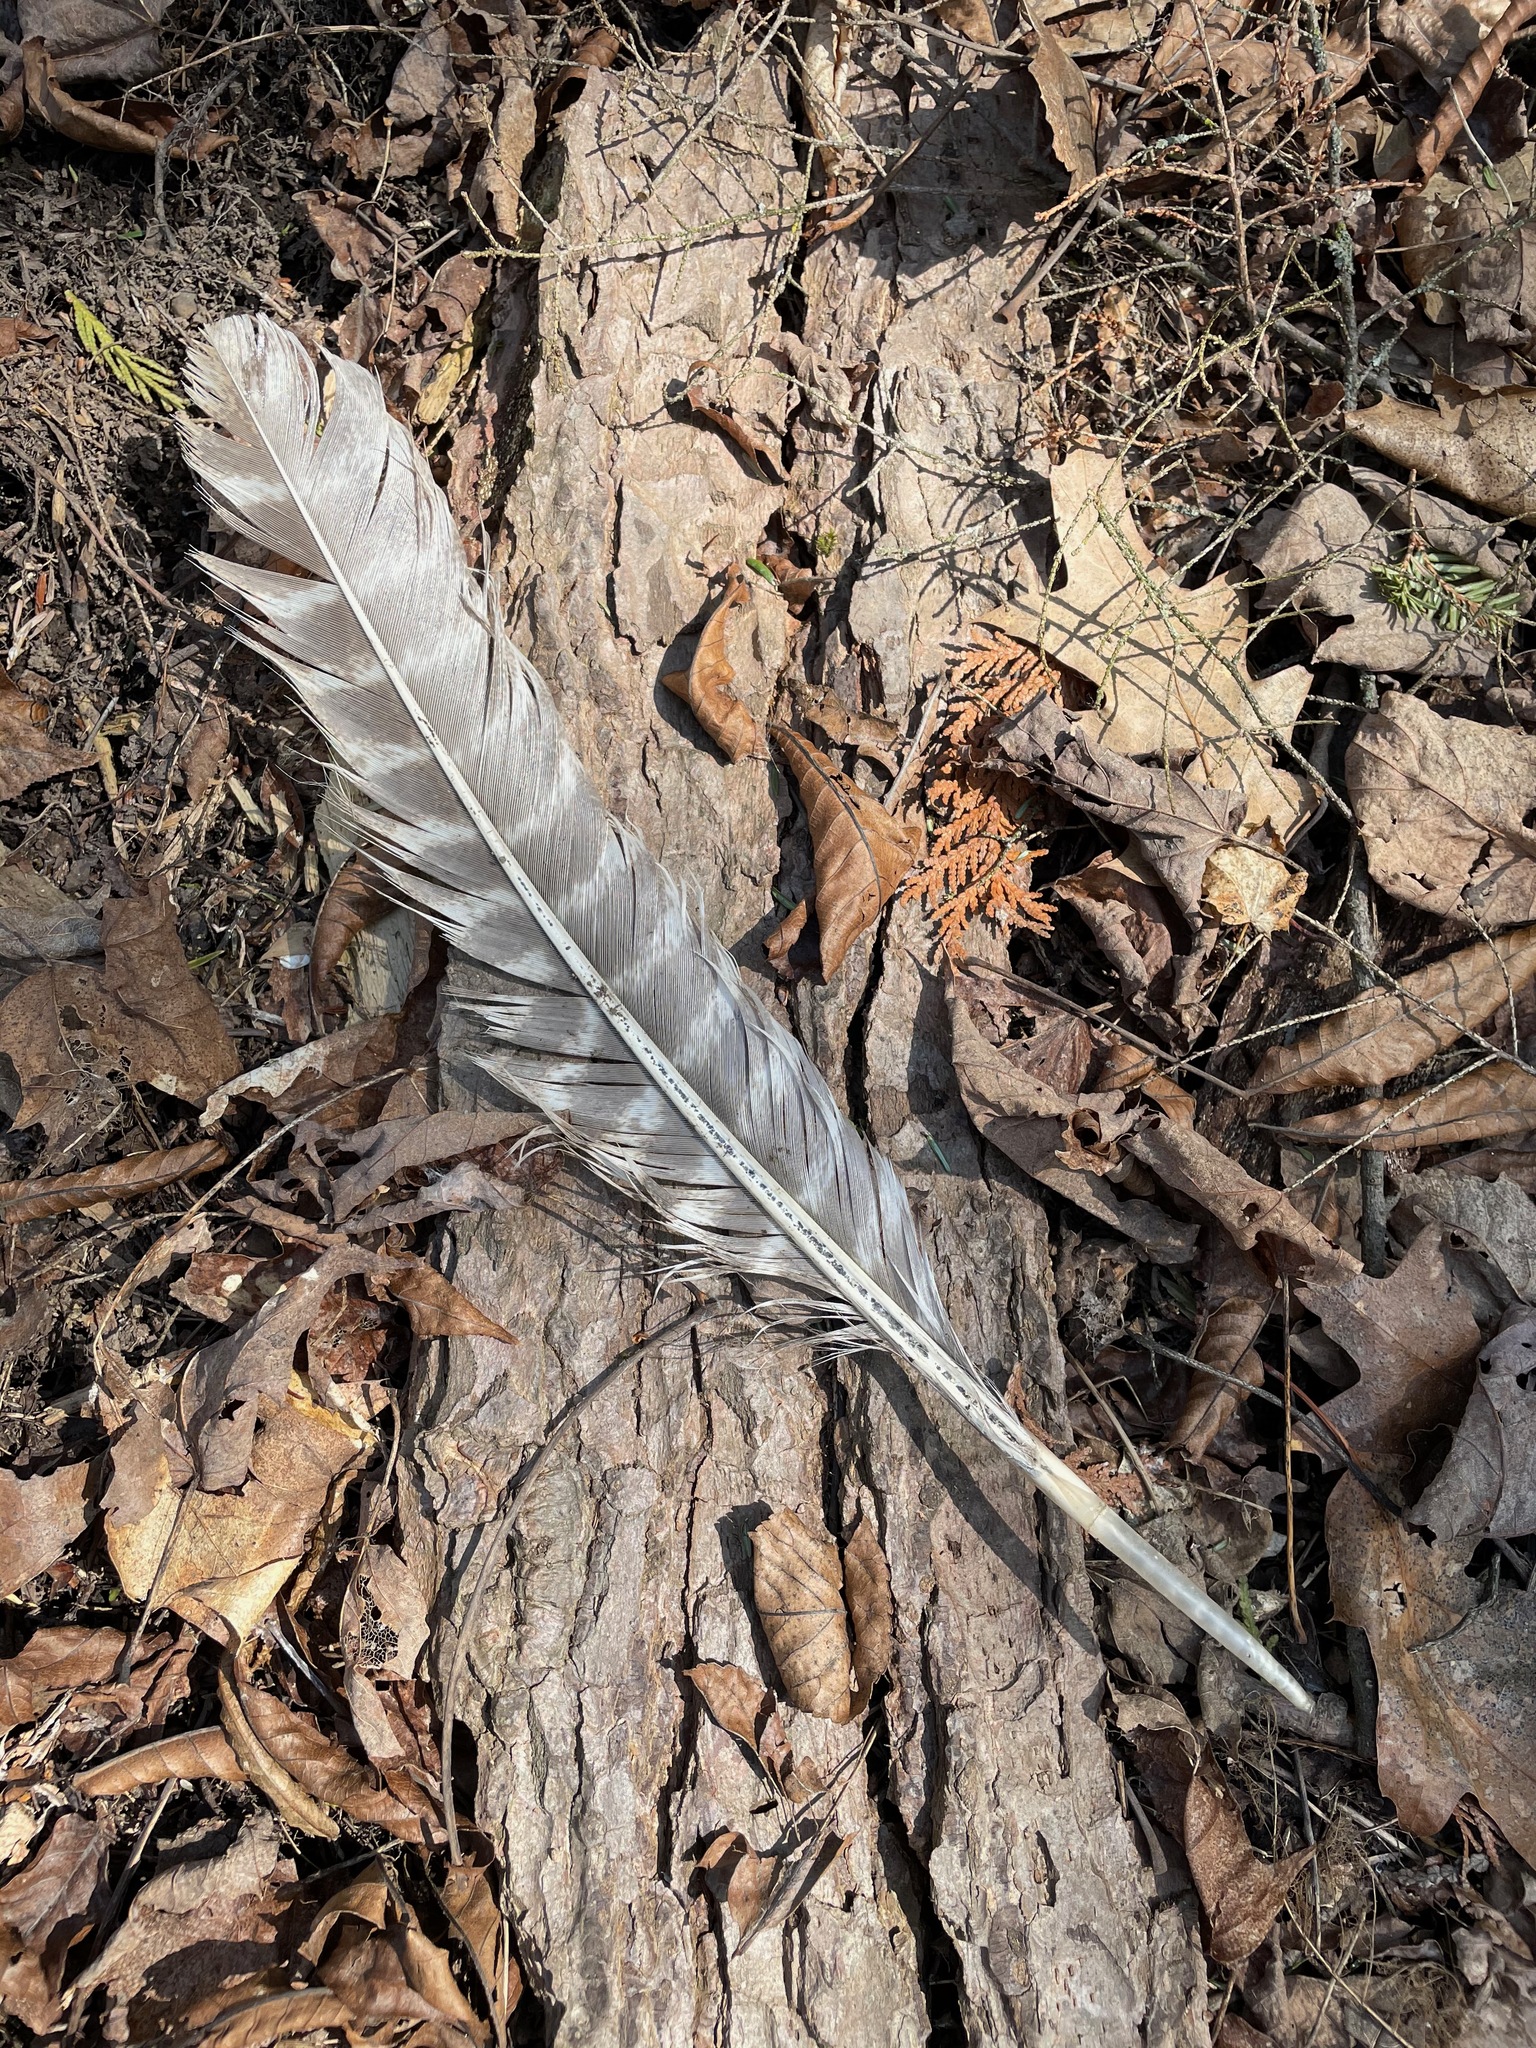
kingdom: Animalia
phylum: Chordata
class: Aves
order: Galliformes
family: Phasianidae
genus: Meleagris
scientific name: Meleagris gallopavo
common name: Wild turkey
